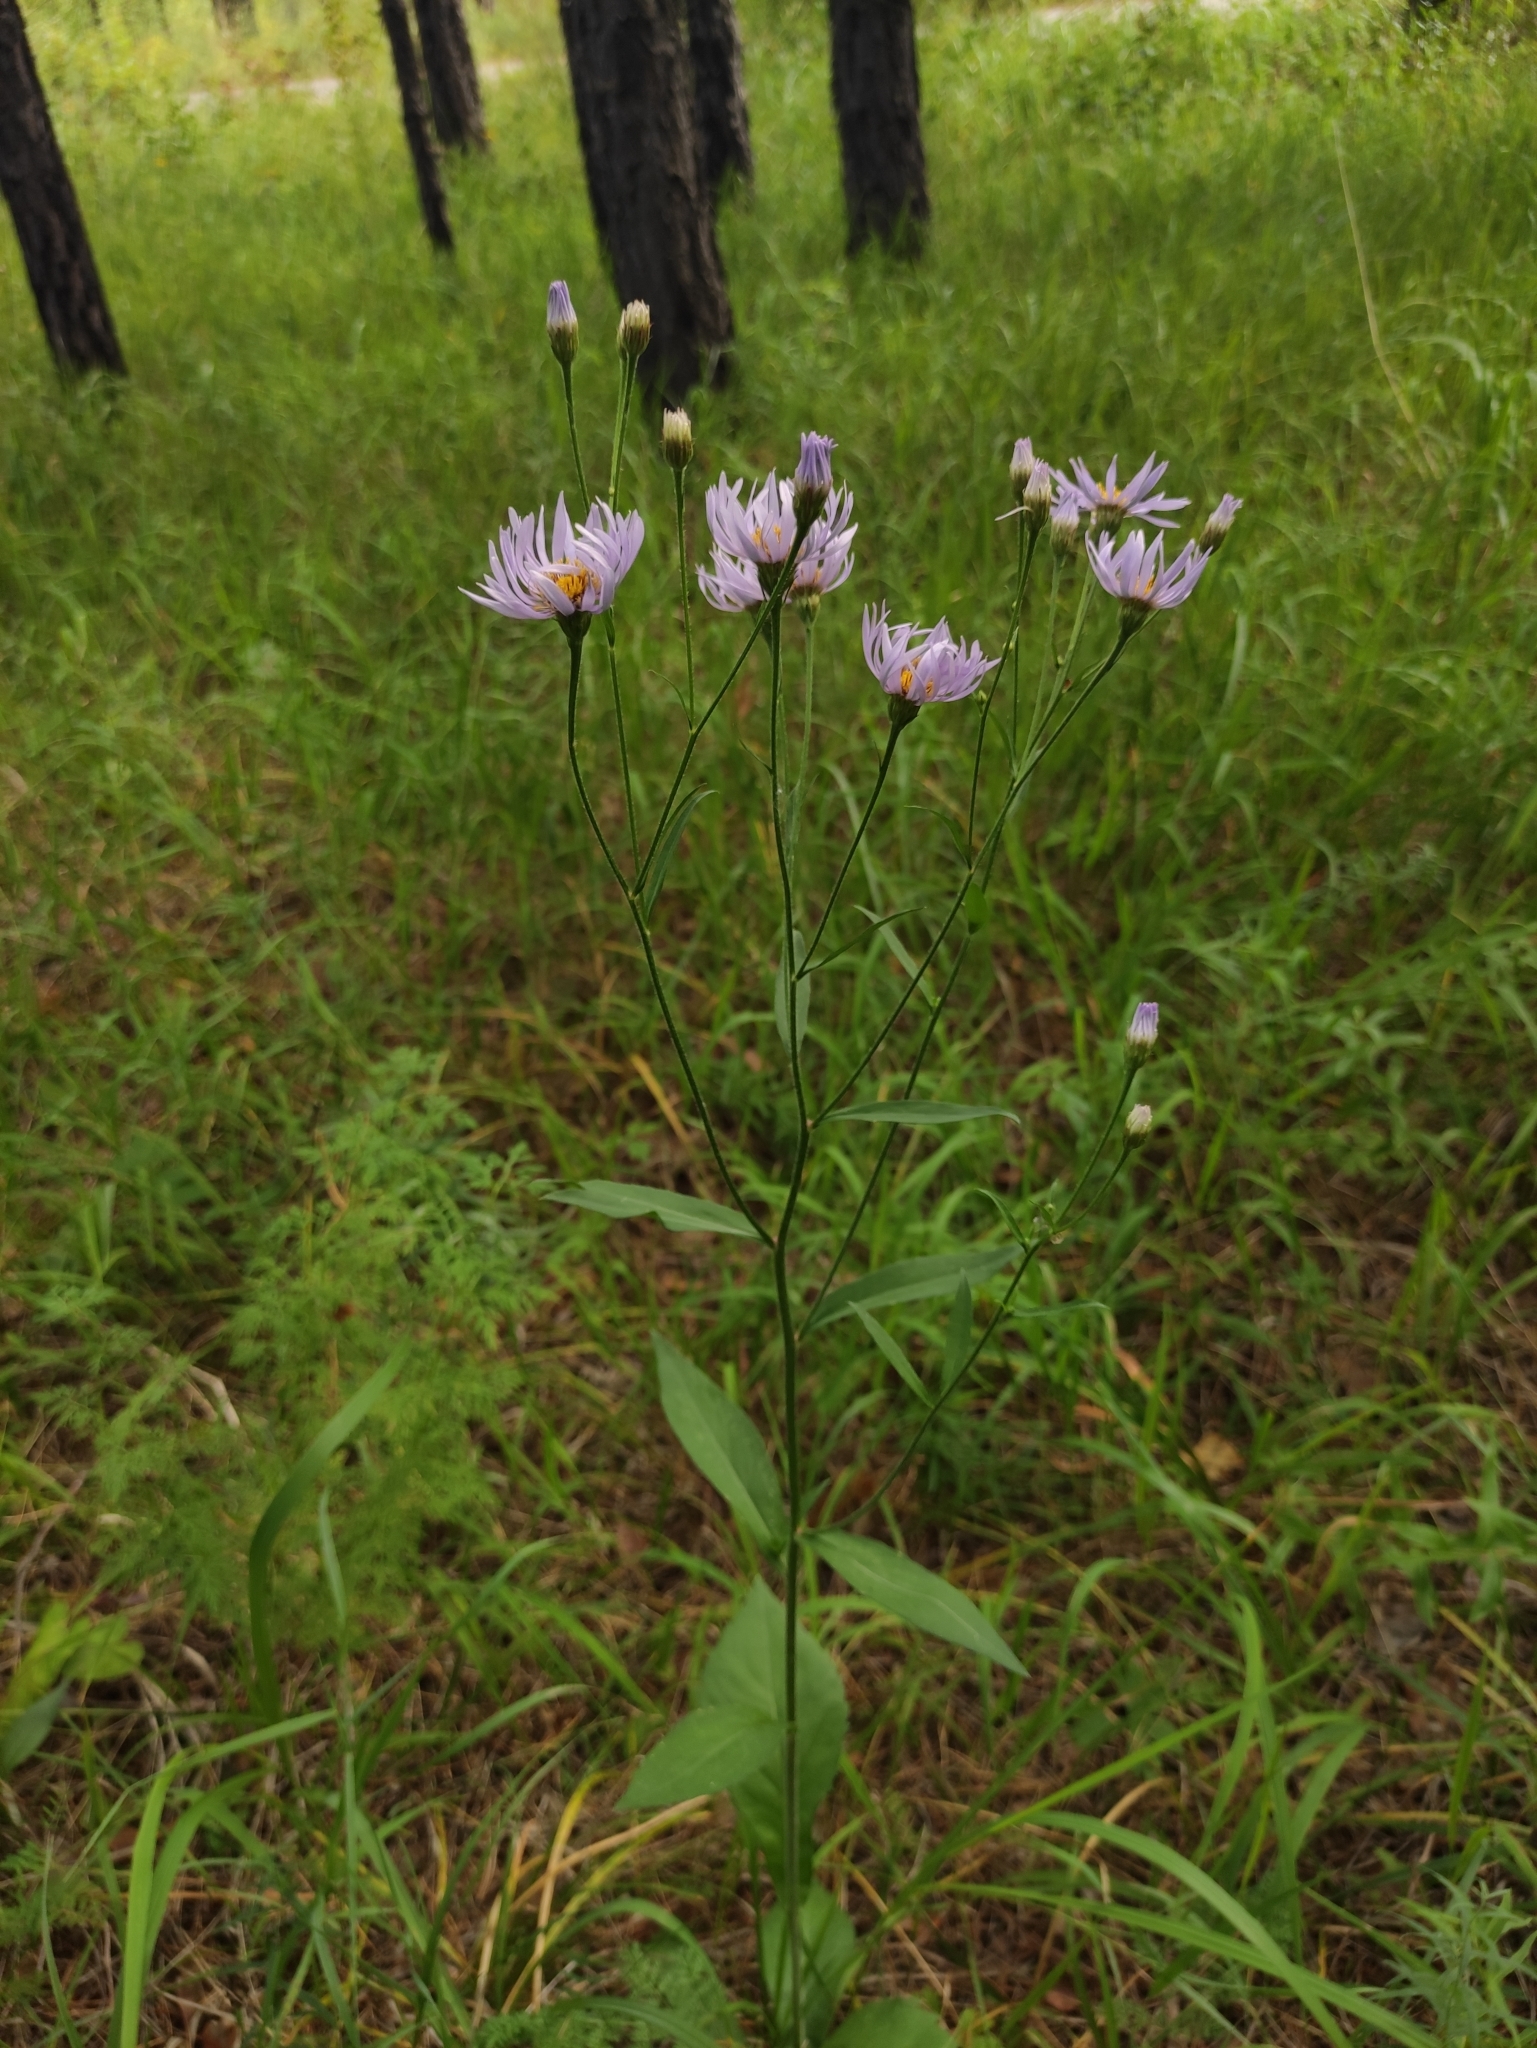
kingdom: Plantae
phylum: Tracheophyta
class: Magnoliopsida
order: Asterales
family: Asteraceae
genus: Aster
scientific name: Aster tataricus
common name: Tatarian aster
